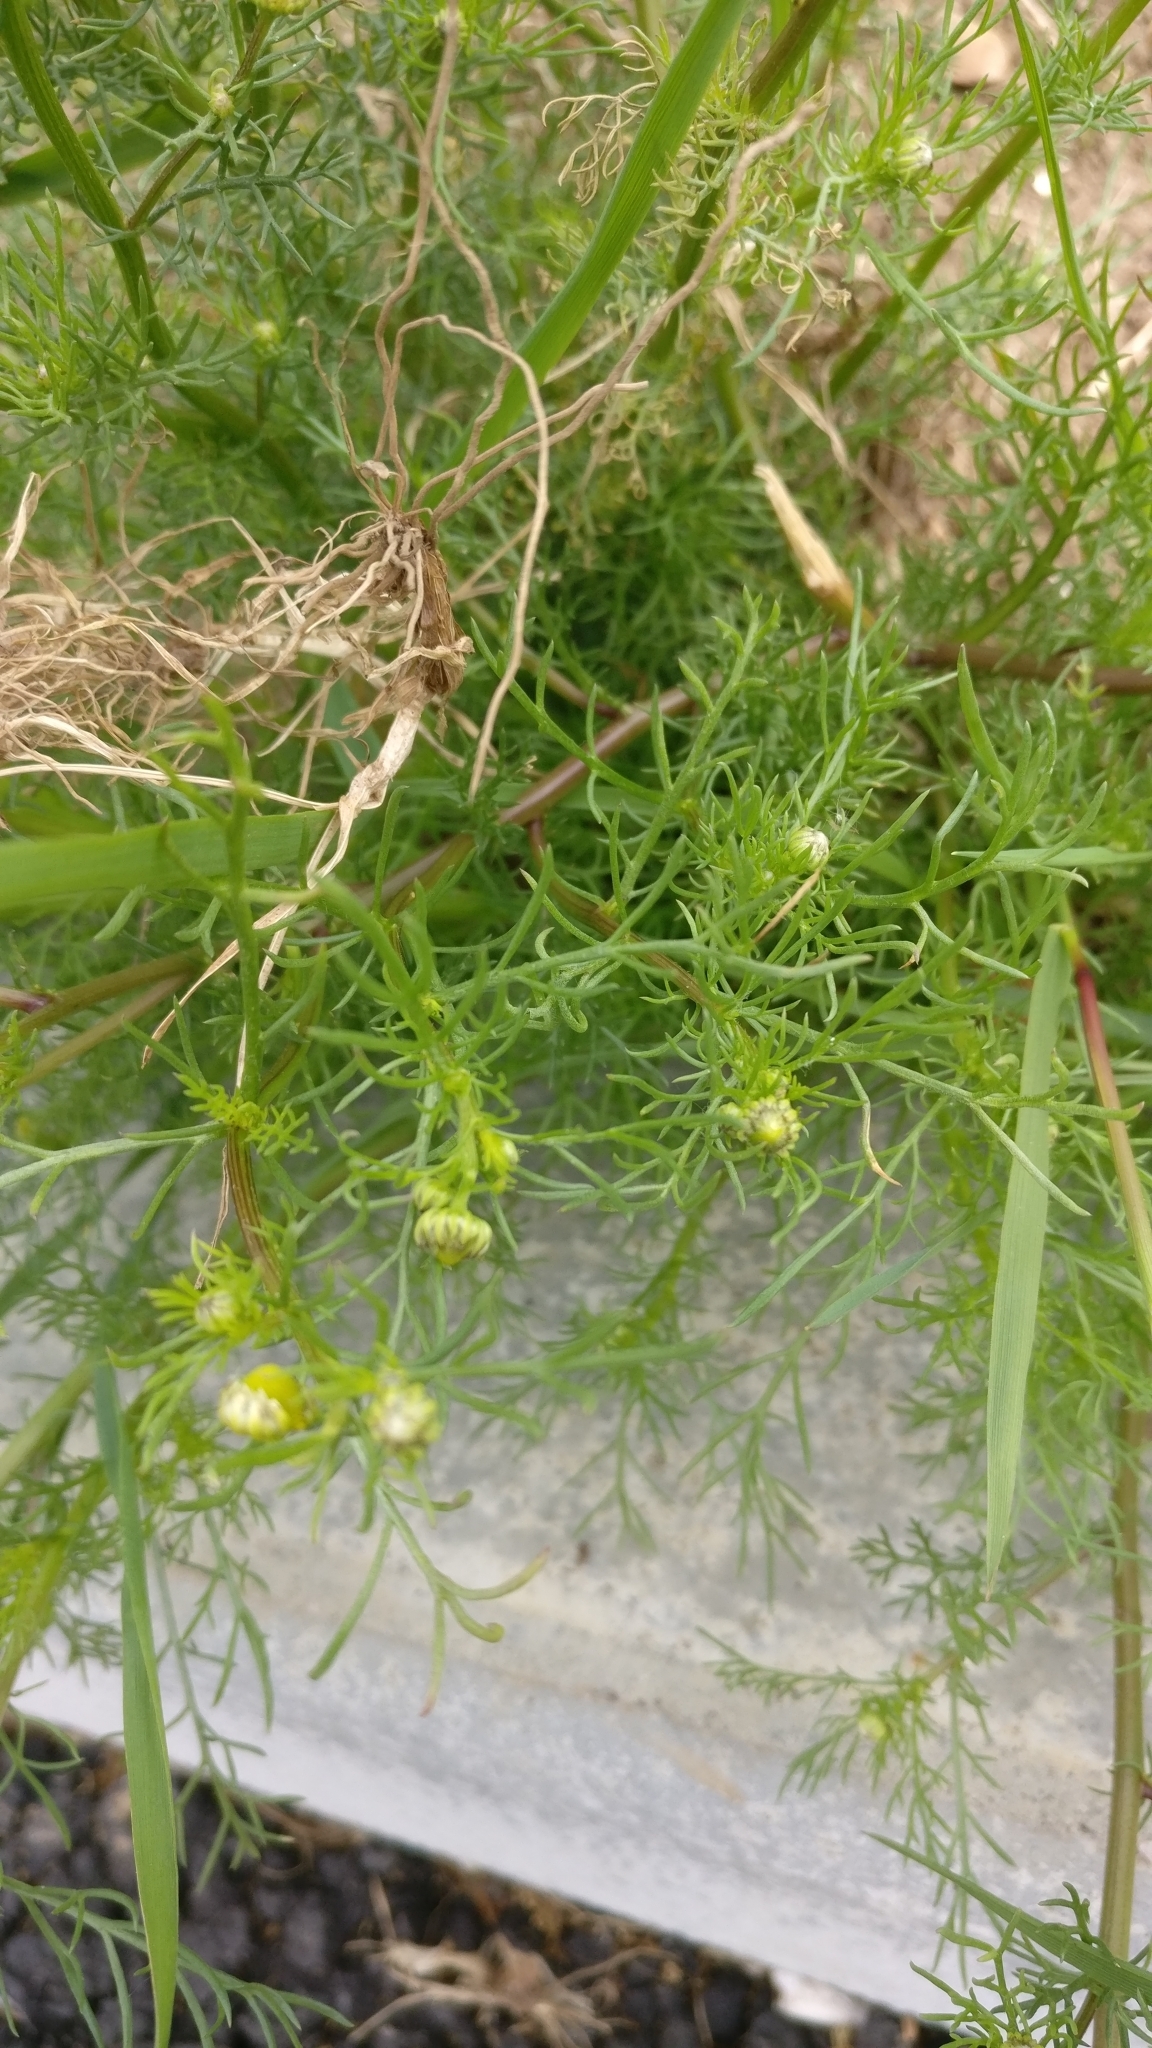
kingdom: Plantae
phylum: Tracheophyta
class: Magnoliopsida
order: Asterales
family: Asteraceae
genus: Tripleurospermum
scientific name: Tripleurospermum inodorum
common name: Scentless mayweed
